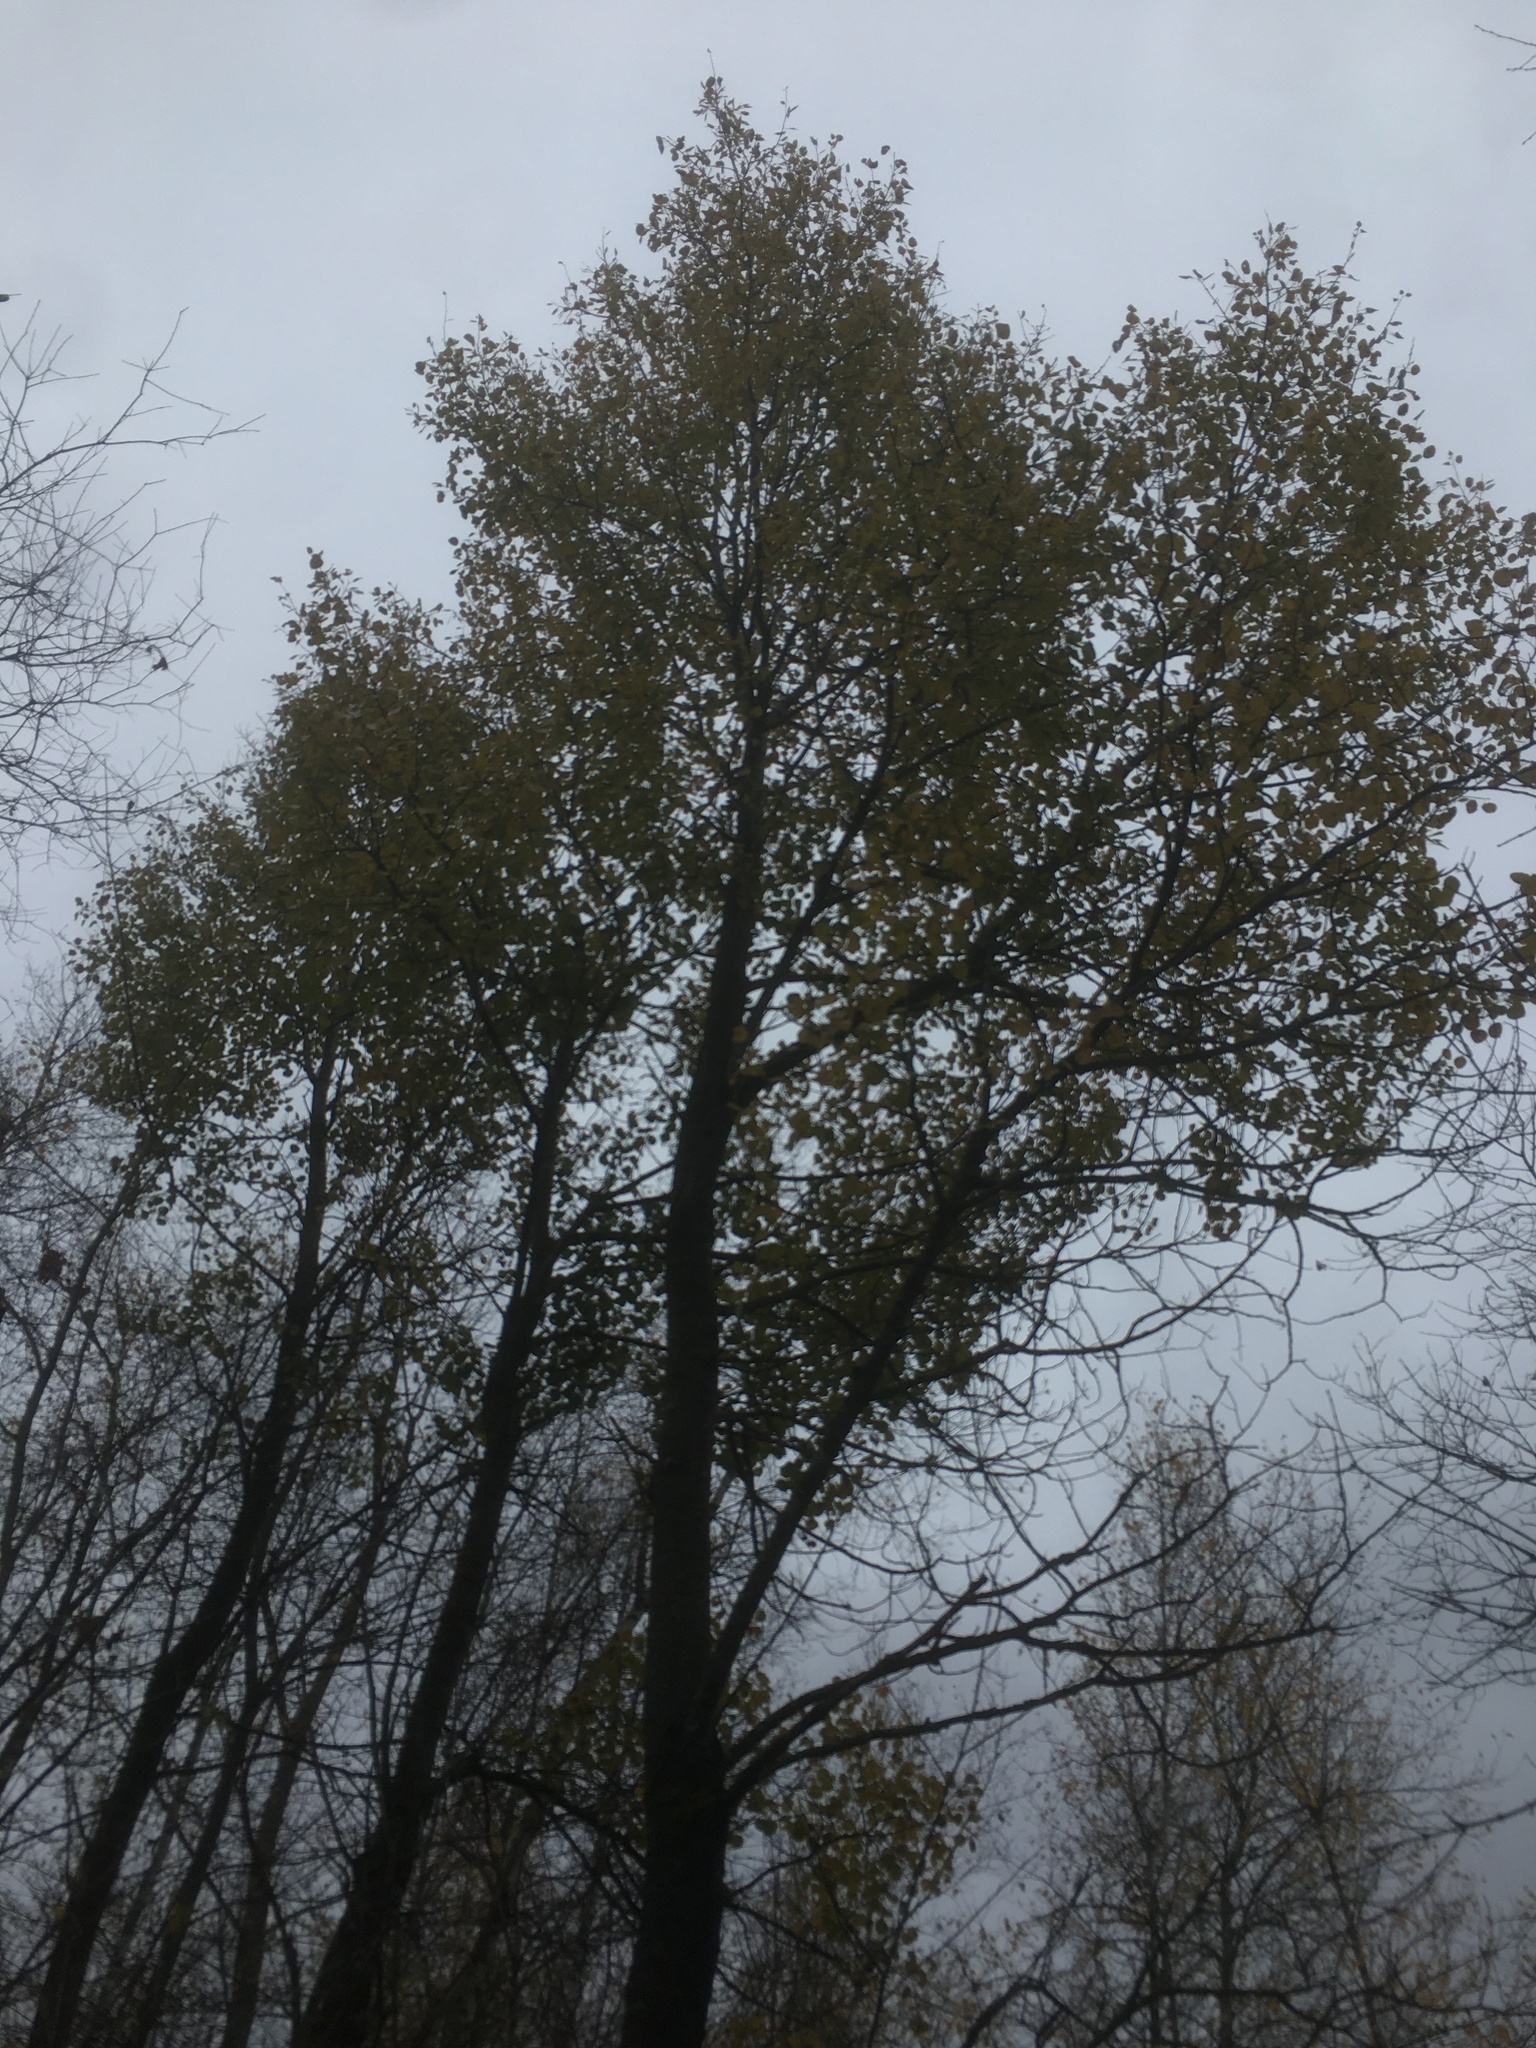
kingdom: Plantae
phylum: Tracheophyta
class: Magnoliopsida
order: Malpighiales
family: Salicaceae
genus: Populus
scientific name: Populus tremuloides
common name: Quaking aspen
